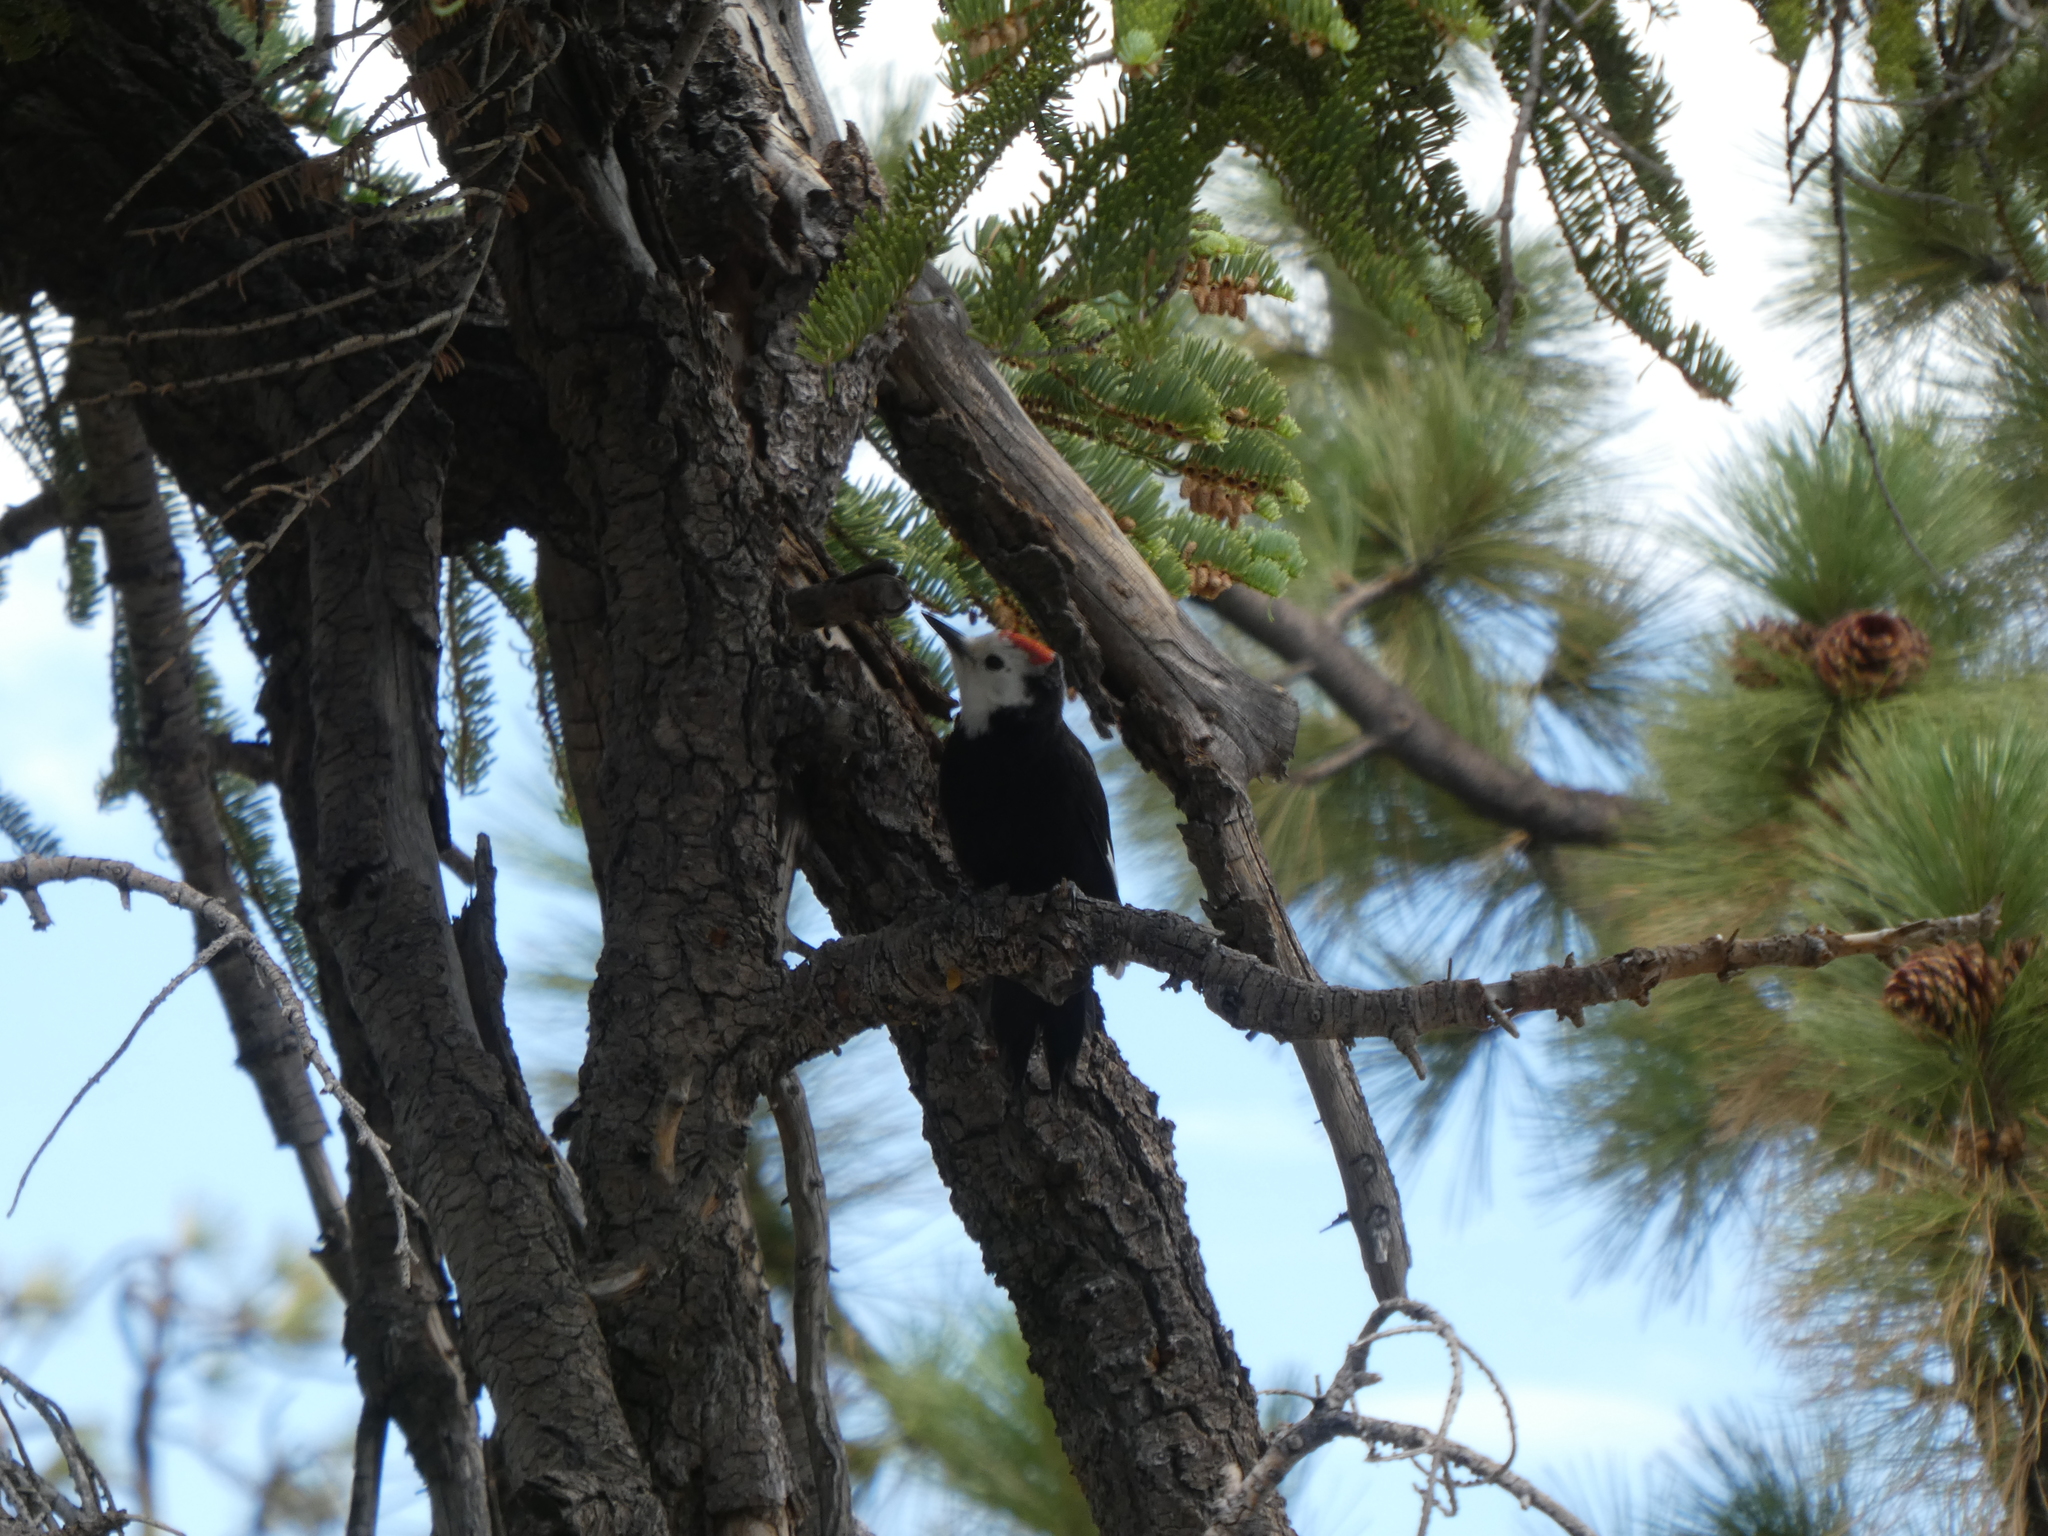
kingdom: Animalia
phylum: Chordata
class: Aves
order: Piciformes
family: Picidae
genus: Leuconotopicus
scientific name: Leuconotopicus albolarvatus
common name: White-headed woodpecker
